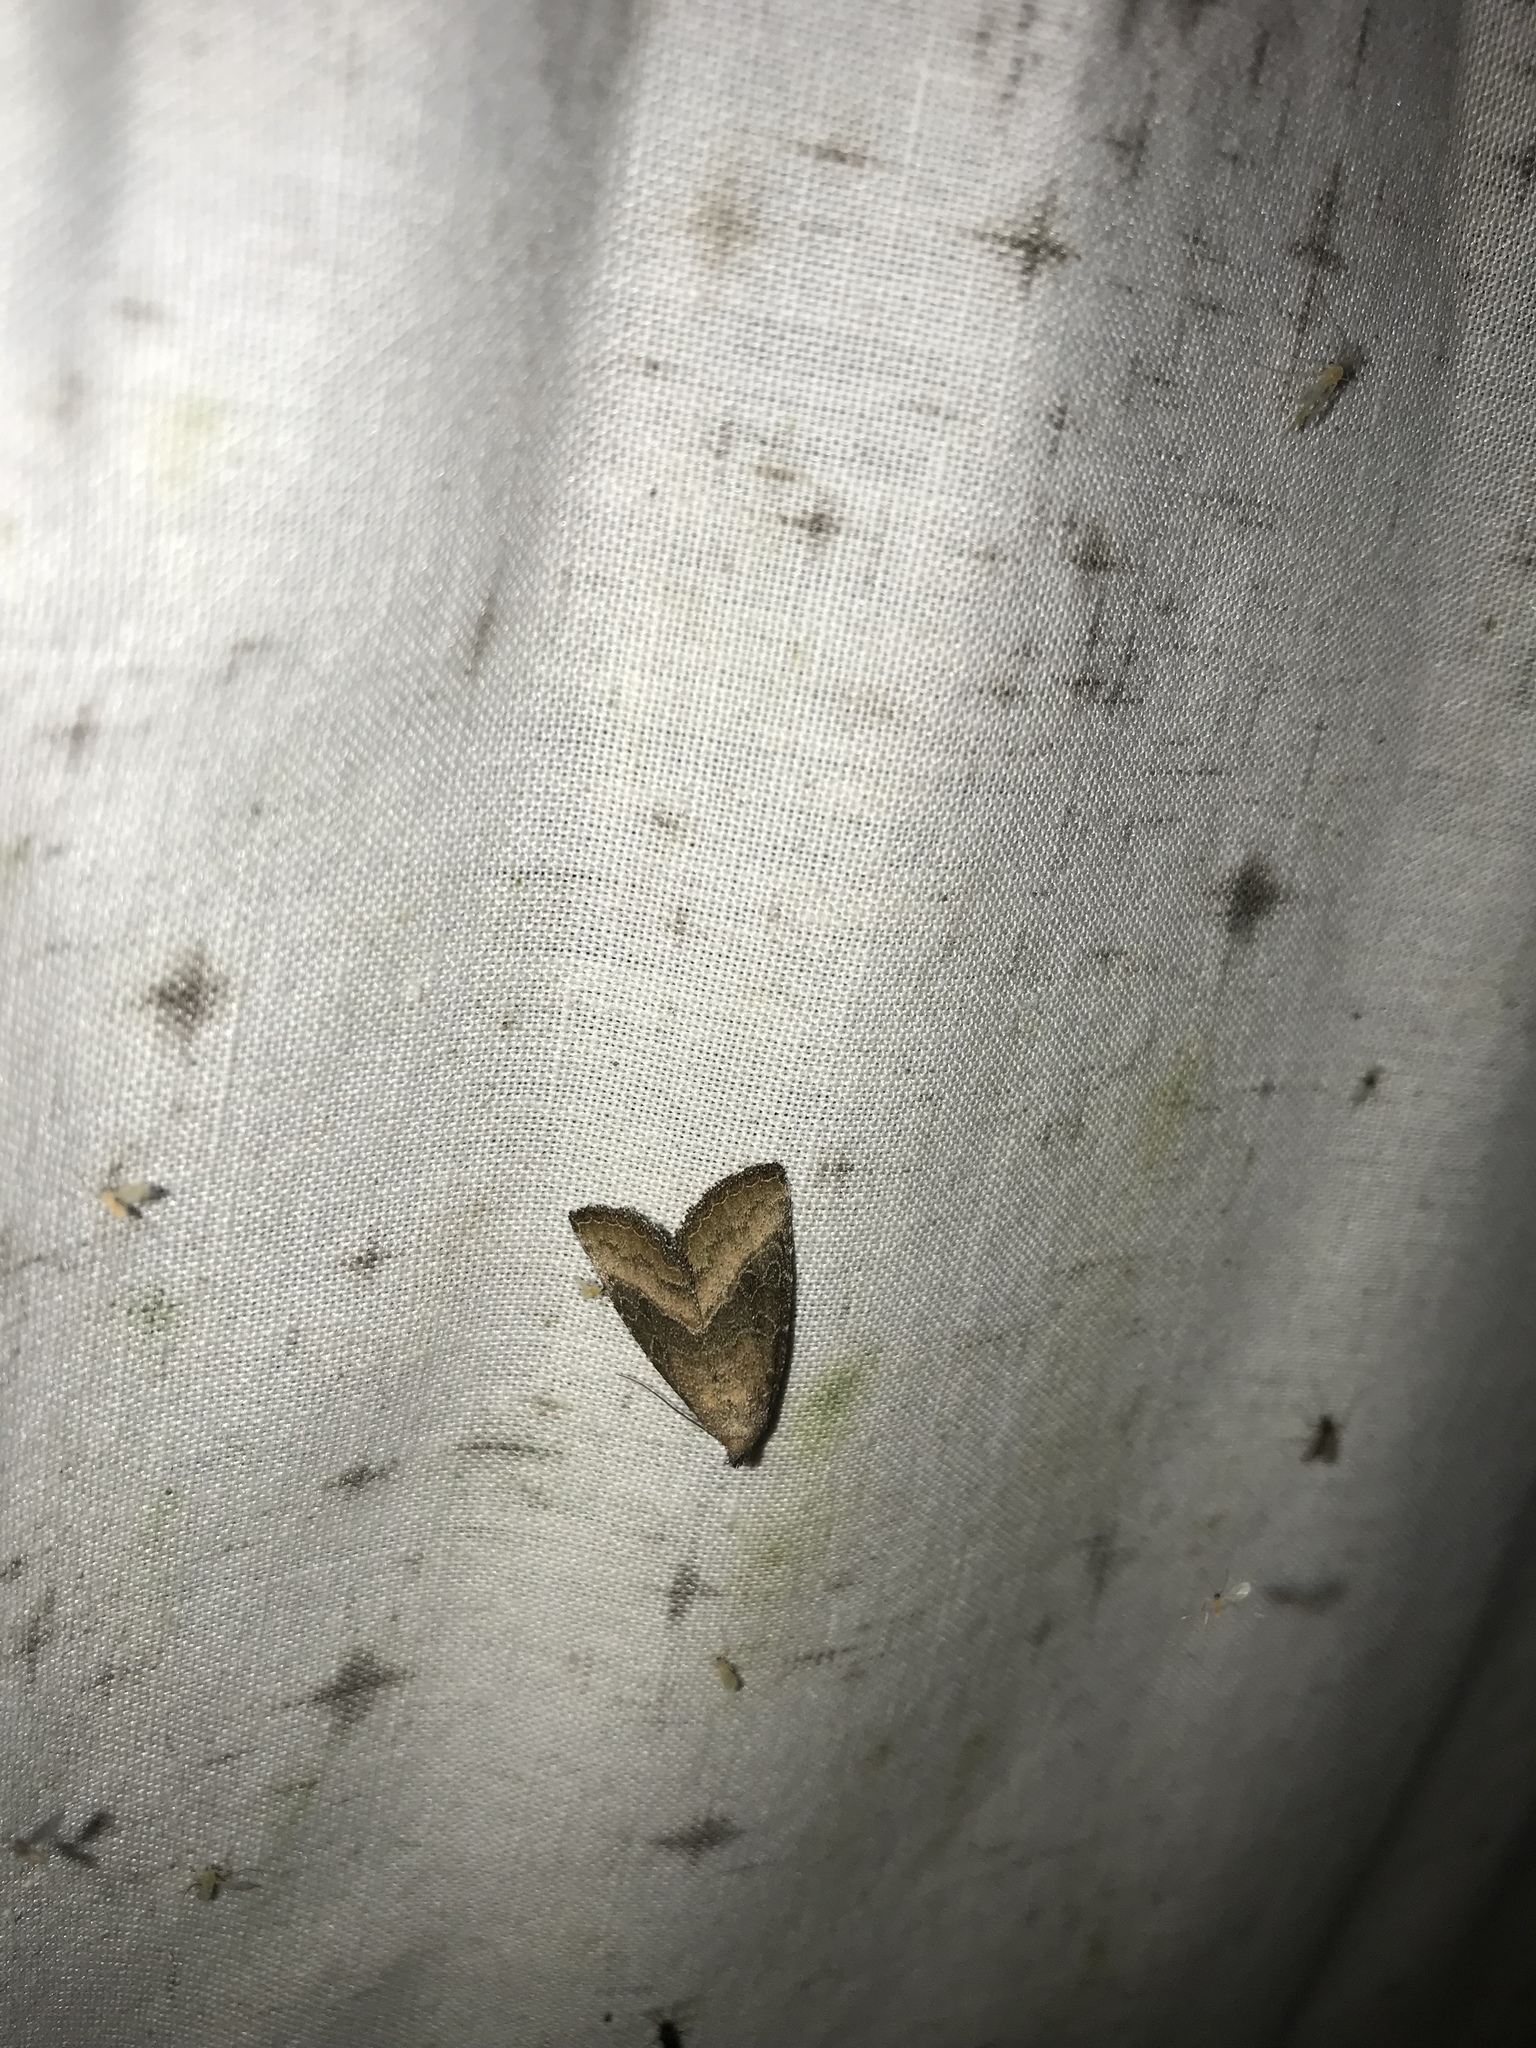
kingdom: Animalia
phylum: Arthropoda
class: Insecta
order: Lepidoptera
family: Noctuidae
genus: Ogdoconta
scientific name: Ogdoconta cinereola
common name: Common pinkband
